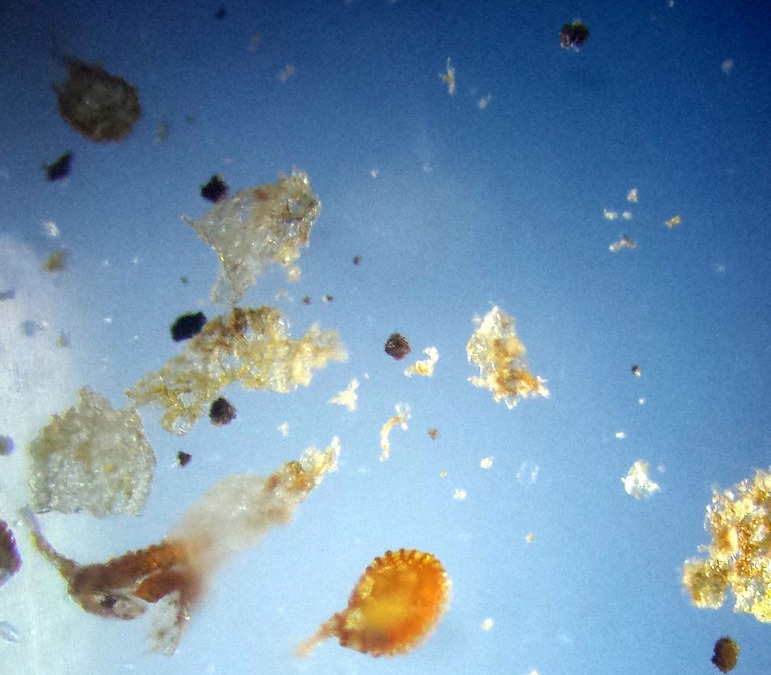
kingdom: Plantae
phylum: Tracheophyta
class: Polypodiopsida
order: Polypodiales
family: Aspleniaceae
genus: Asplenium
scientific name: Asplenium heufleri
